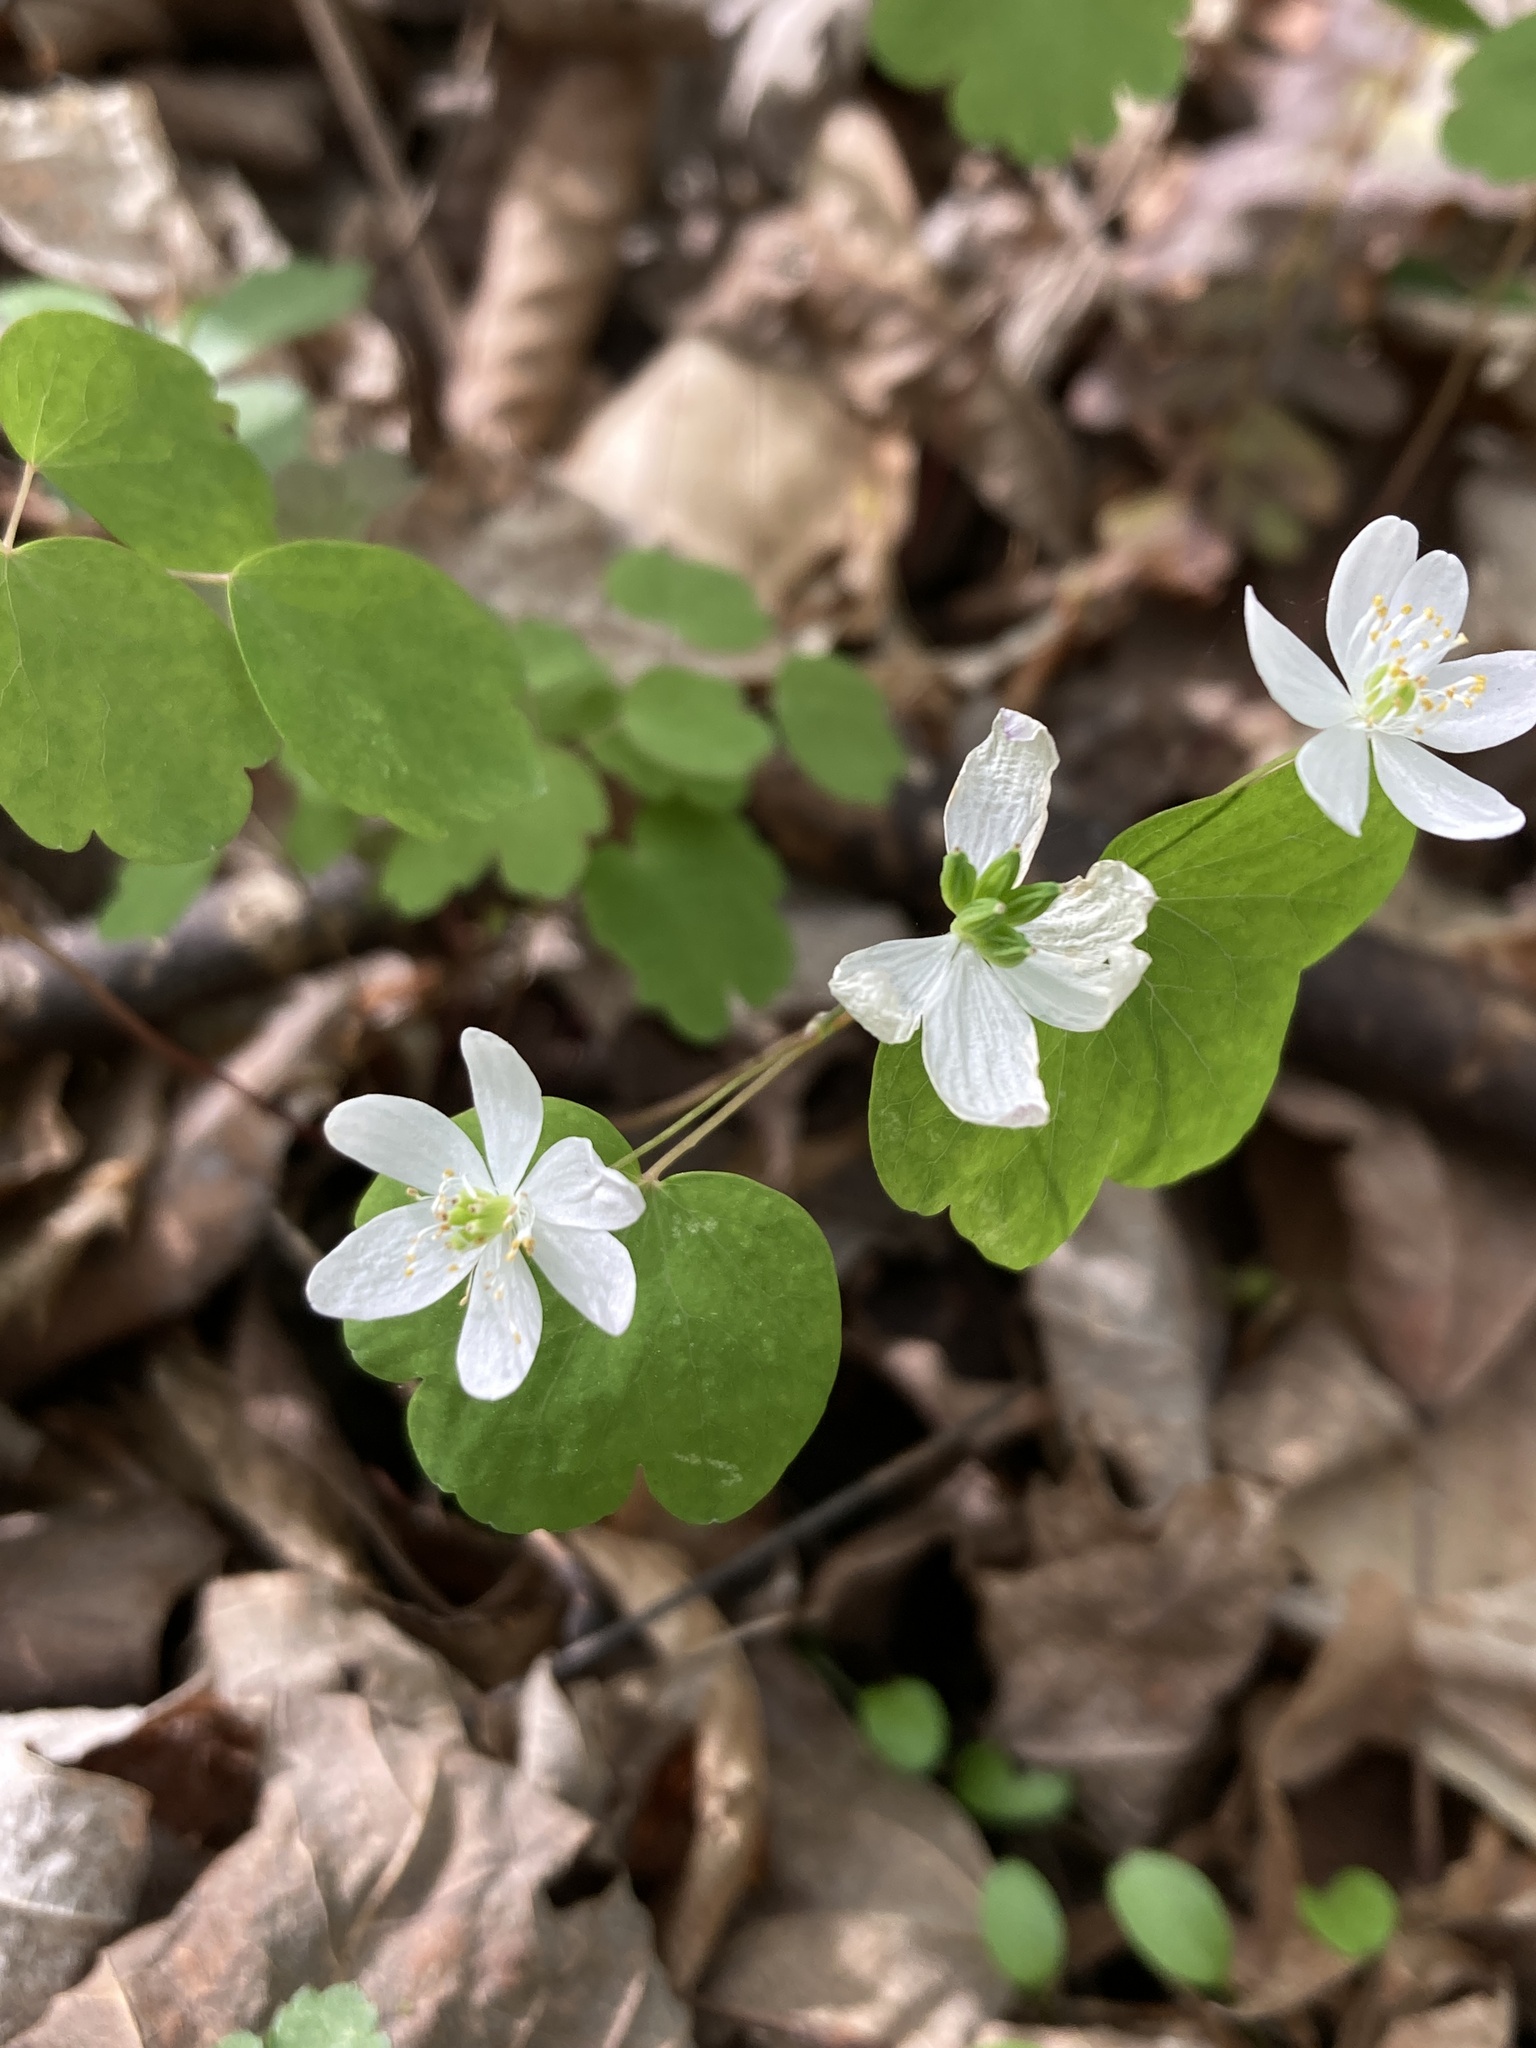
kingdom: Plantae
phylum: Tracheophyta
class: Magnoliopsida
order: Ranunculales
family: Ranunculaceae
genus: Thalictrum
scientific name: Thalictrum thalictroides
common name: Rue-anemone
